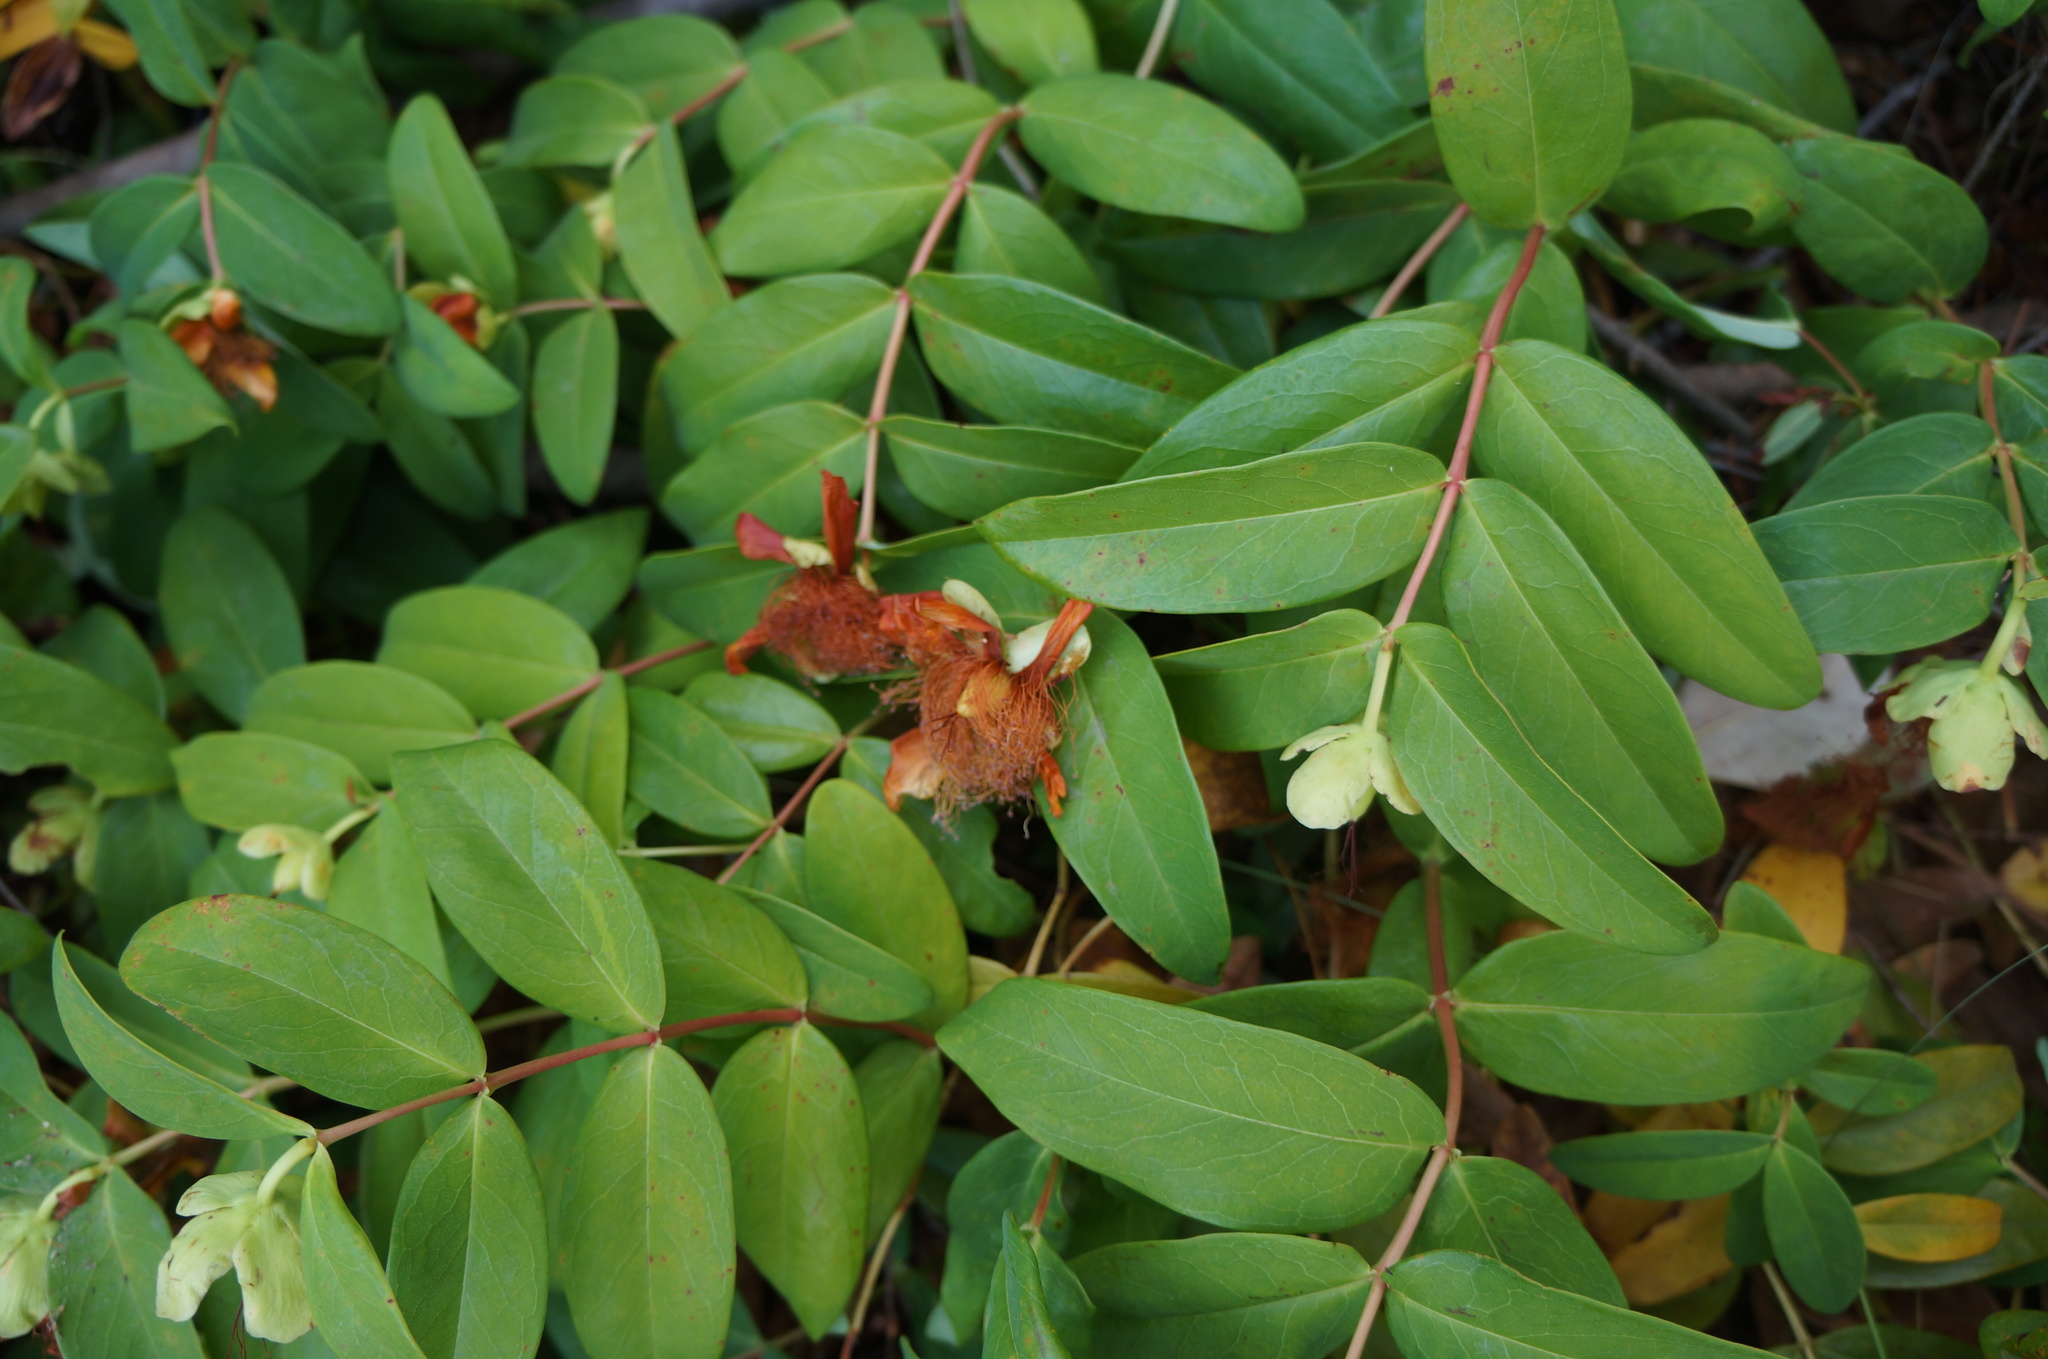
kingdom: Plantae
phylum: Tracheophyta
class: Magnoliopsida
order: Malpighiales
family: Hypericaceae
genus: Hypericum
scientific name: Hypericum calycinum
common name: Rose-of-sharon
